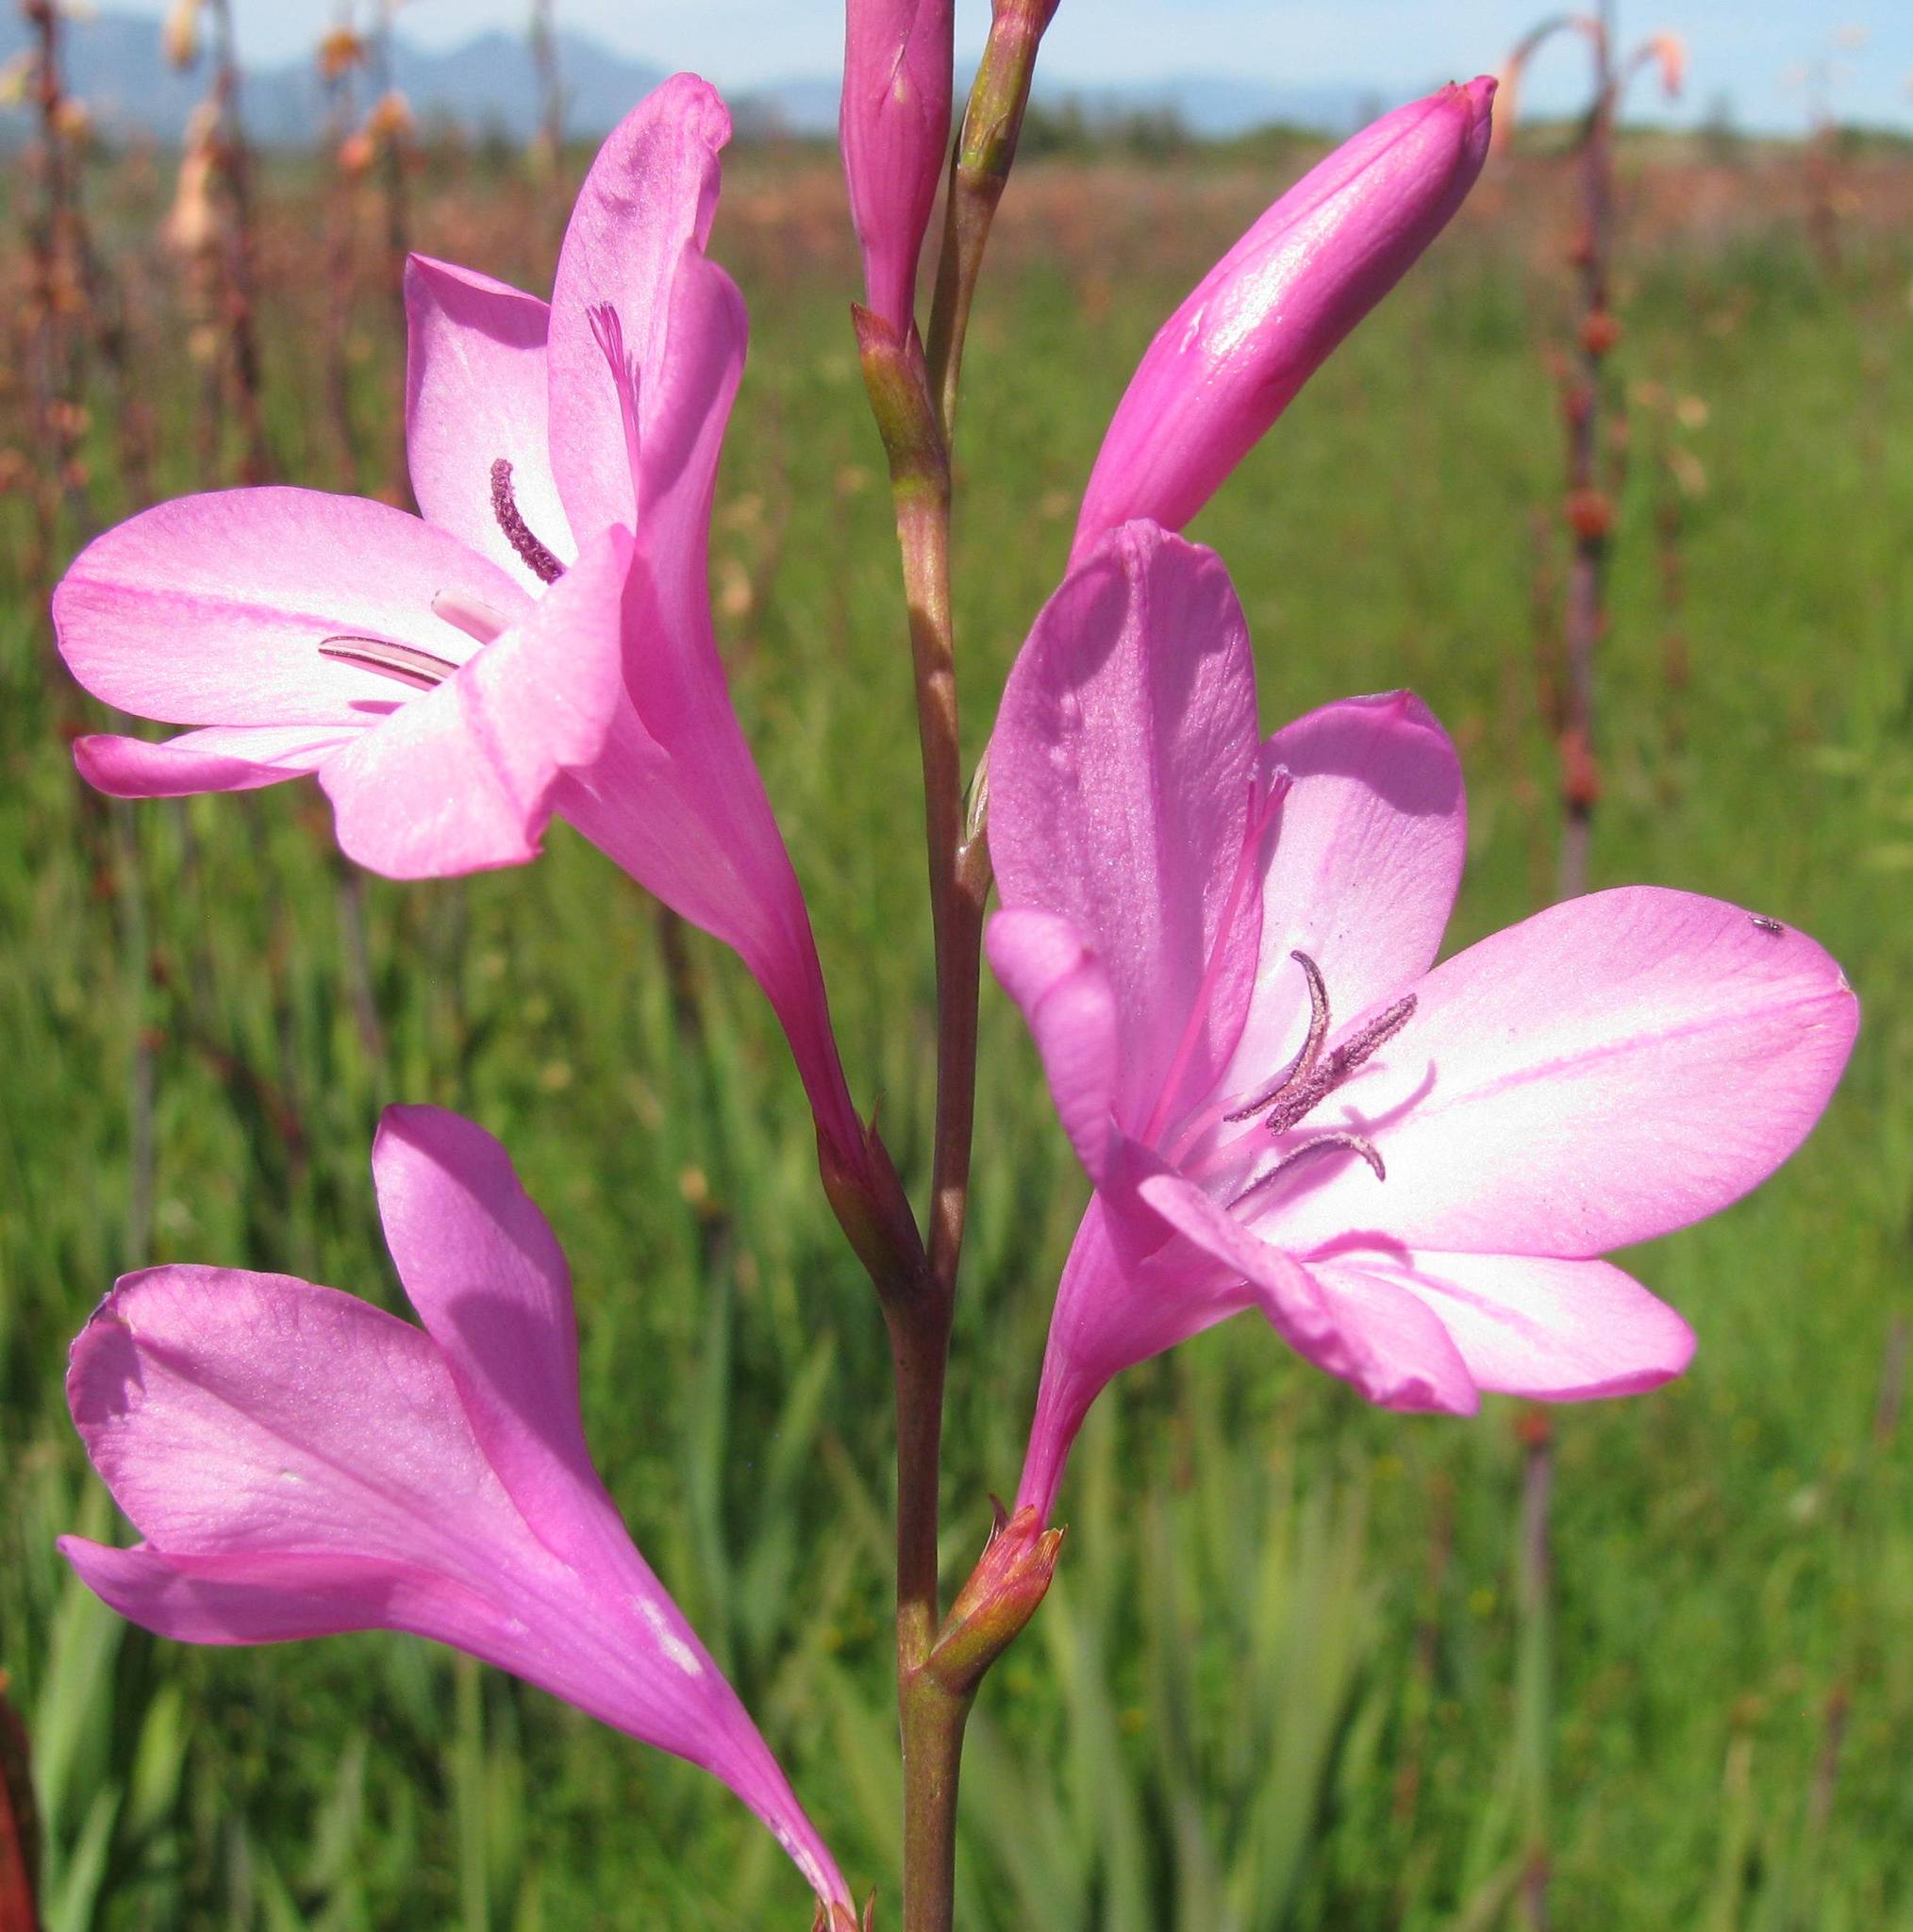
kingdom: Plantae
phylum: Tracheophyta
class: Liliopsida
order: Asparagales
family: Iridaceae
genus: Watsonia
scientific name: Watsonia borbonica
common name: Bugle-lily
